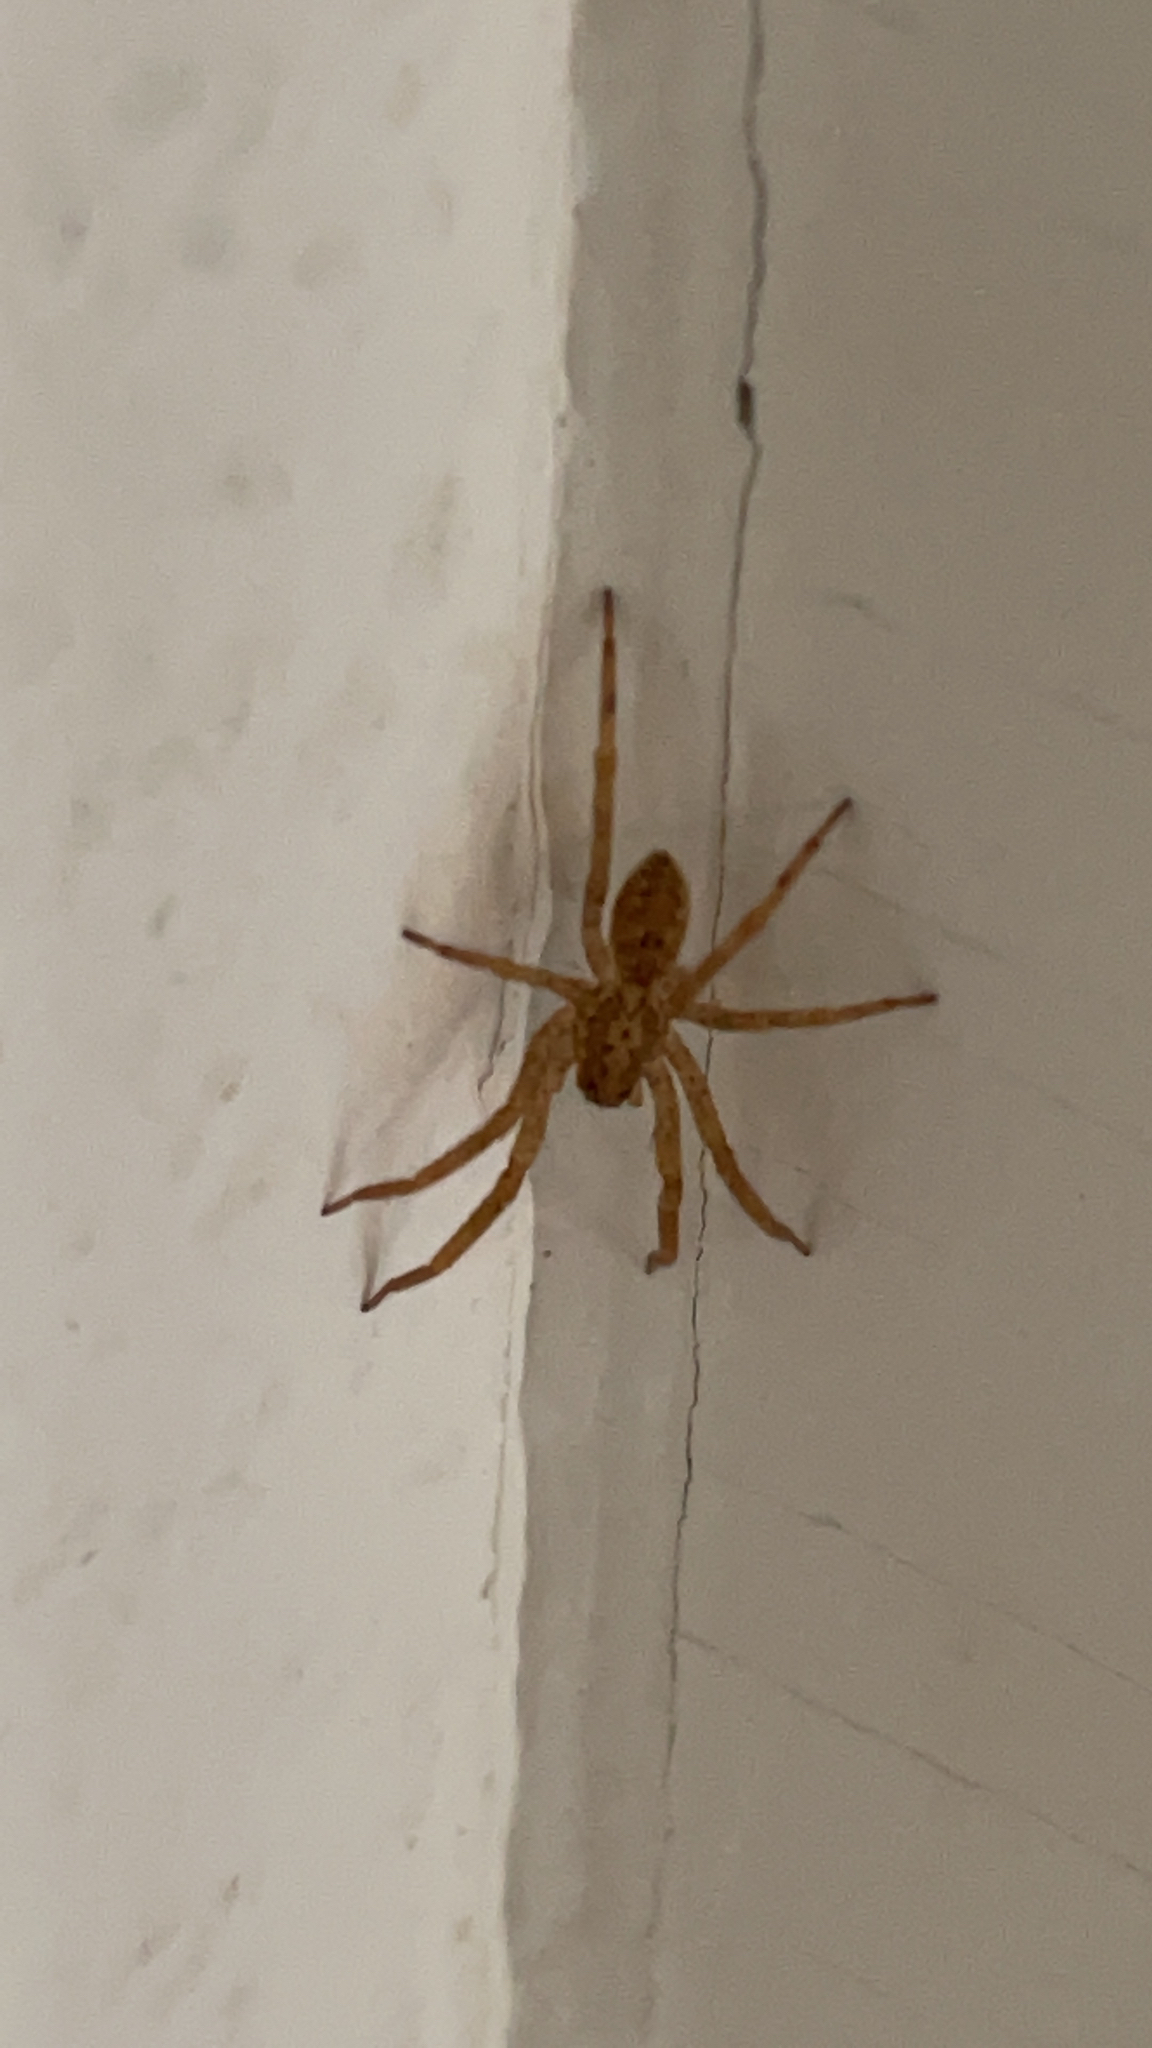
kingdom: Animalia
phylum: Arthropoda
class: Arachnida
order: Araneae
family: Zoropsidae
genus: Zoropsis
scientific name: Zoropsis spinimana
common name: Zoropsid spider
